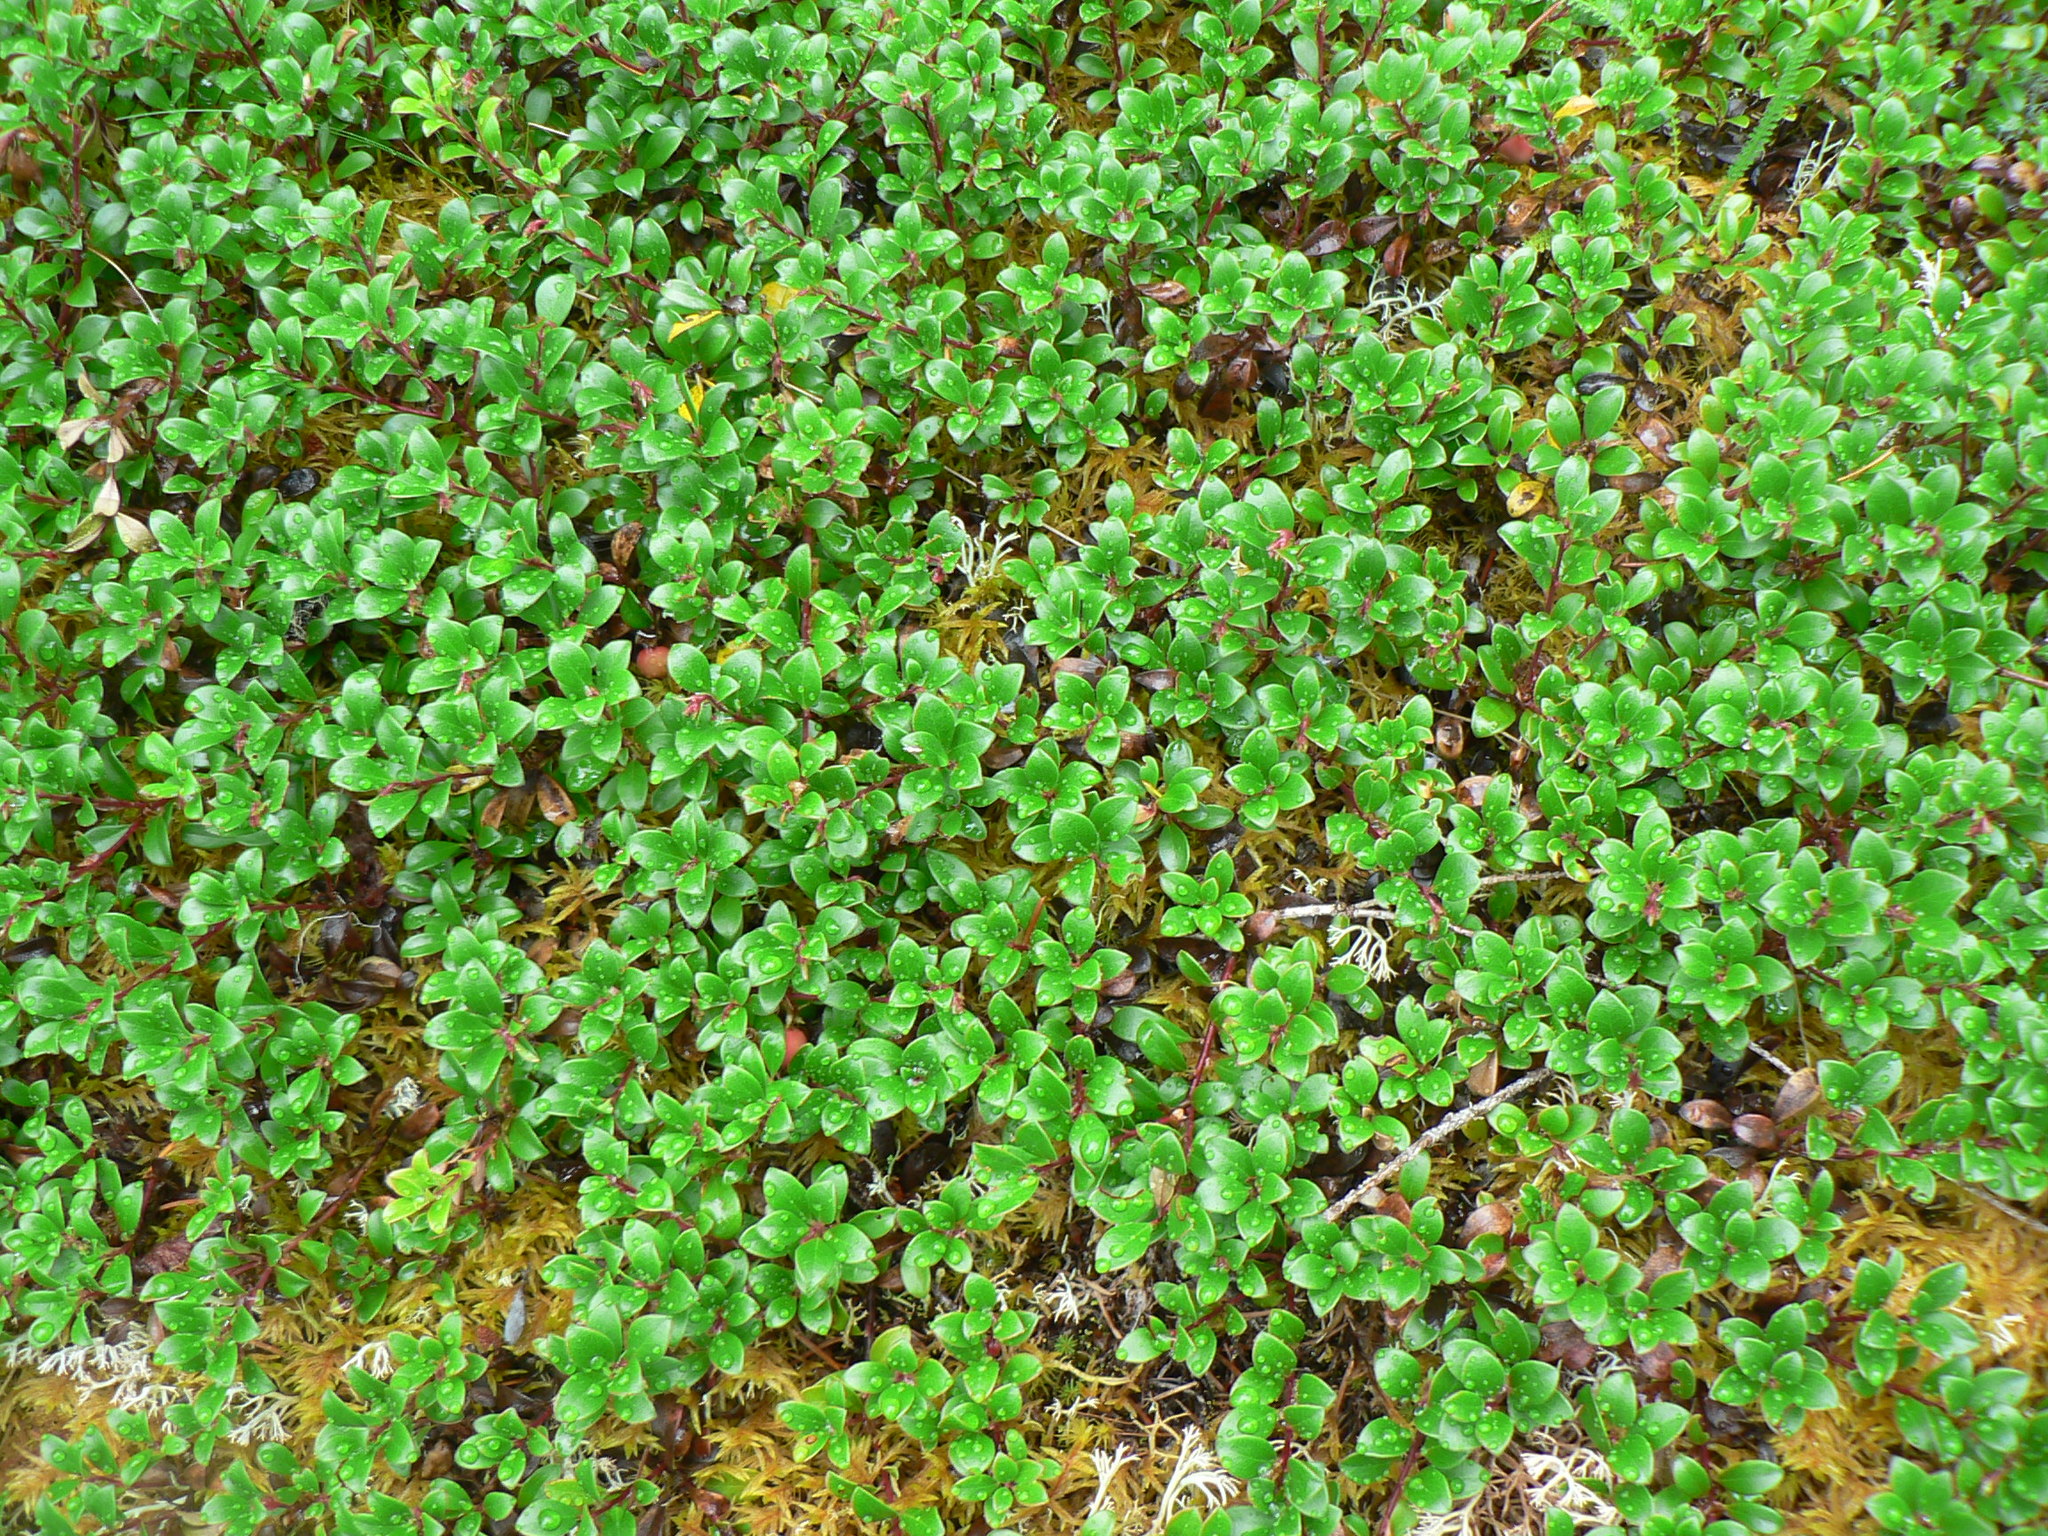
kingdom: Plantae
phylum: Tracheophyta
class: Magnoliopsida
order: Ericales
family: Ericaceae
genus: Arctostaphylos
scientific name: Arctostaphylos uva-ursi
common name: Bearberry
